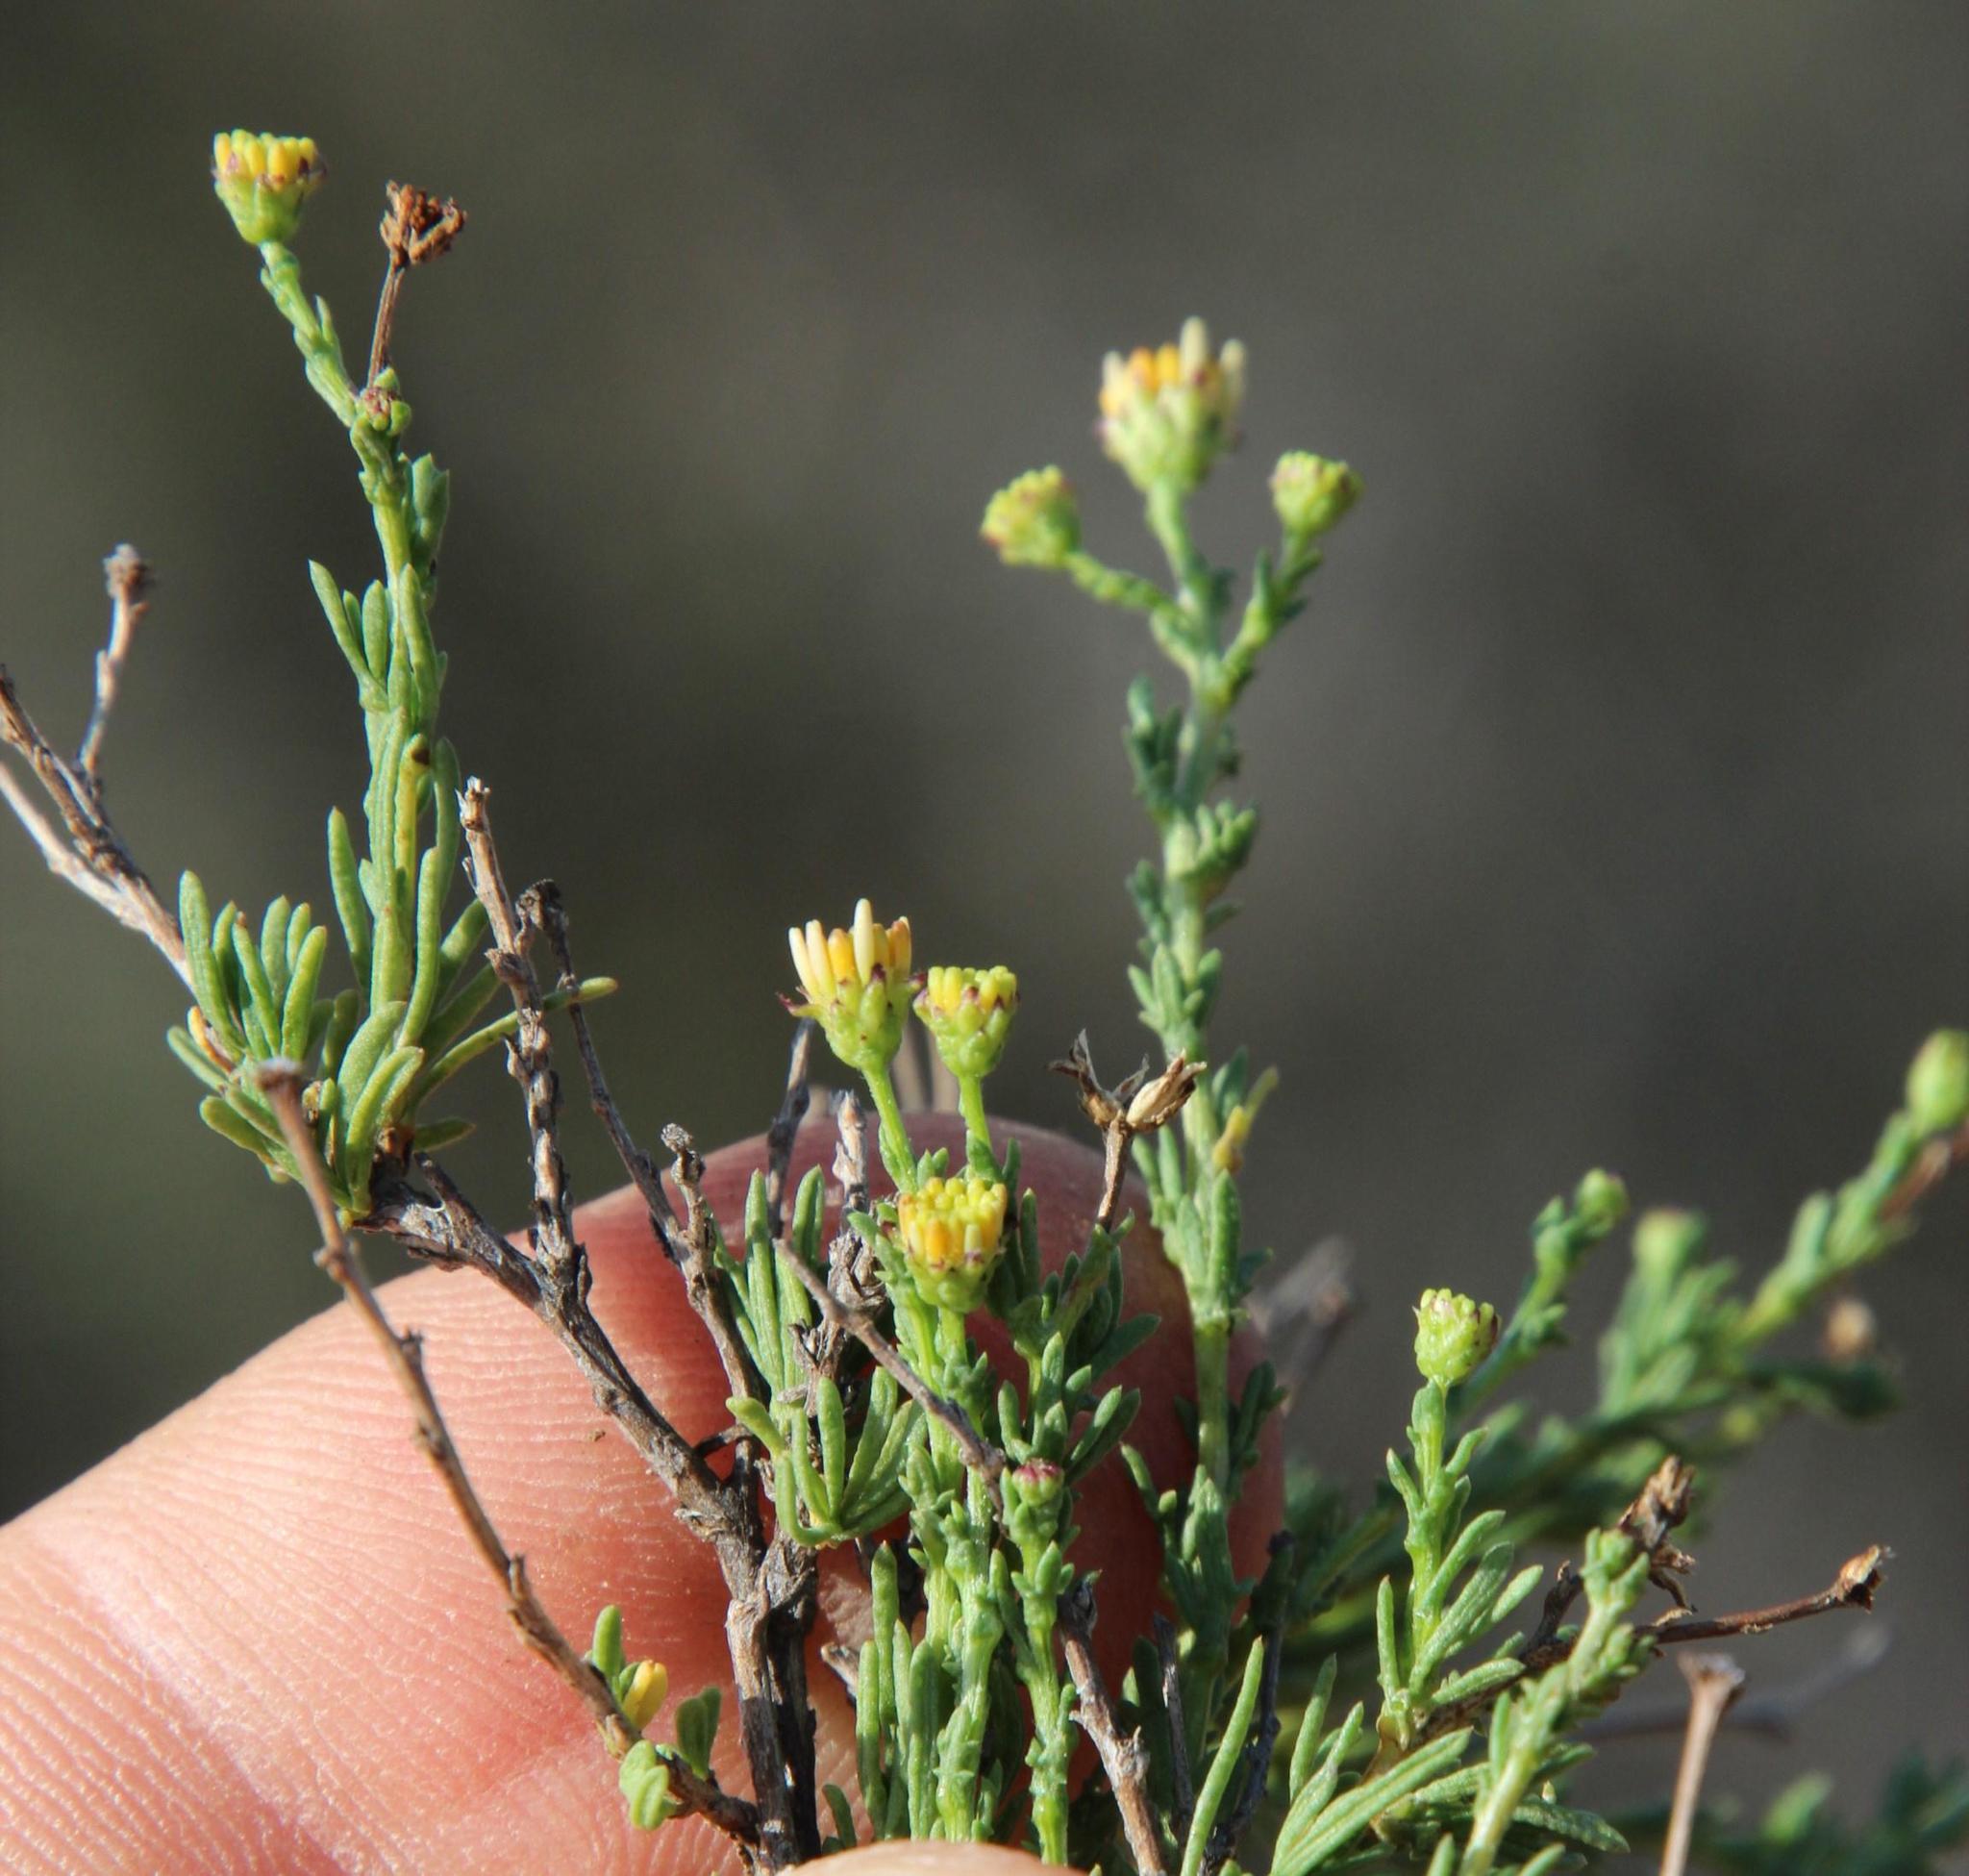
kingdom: Plantae
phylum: Tracheophyta
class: Magnoliopsida
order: Asterales
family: Asteraceae
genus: Phymaspermum
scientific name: Phymaspermum parvifolium
